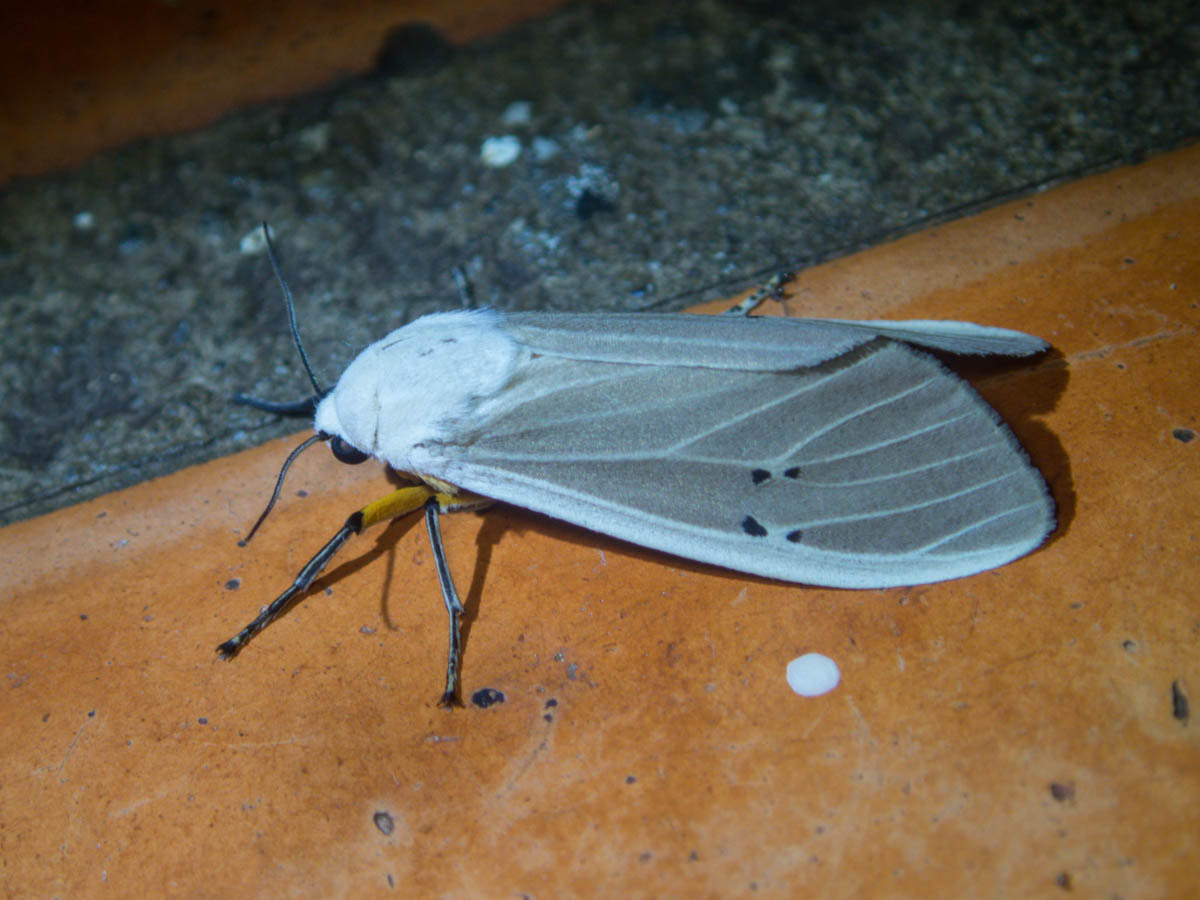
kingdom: Animalia
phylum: Arthropoda
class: Insecta
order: Lepidoptera
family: Erebidae
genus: Creatonotos
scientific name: Creatonotos transiens
